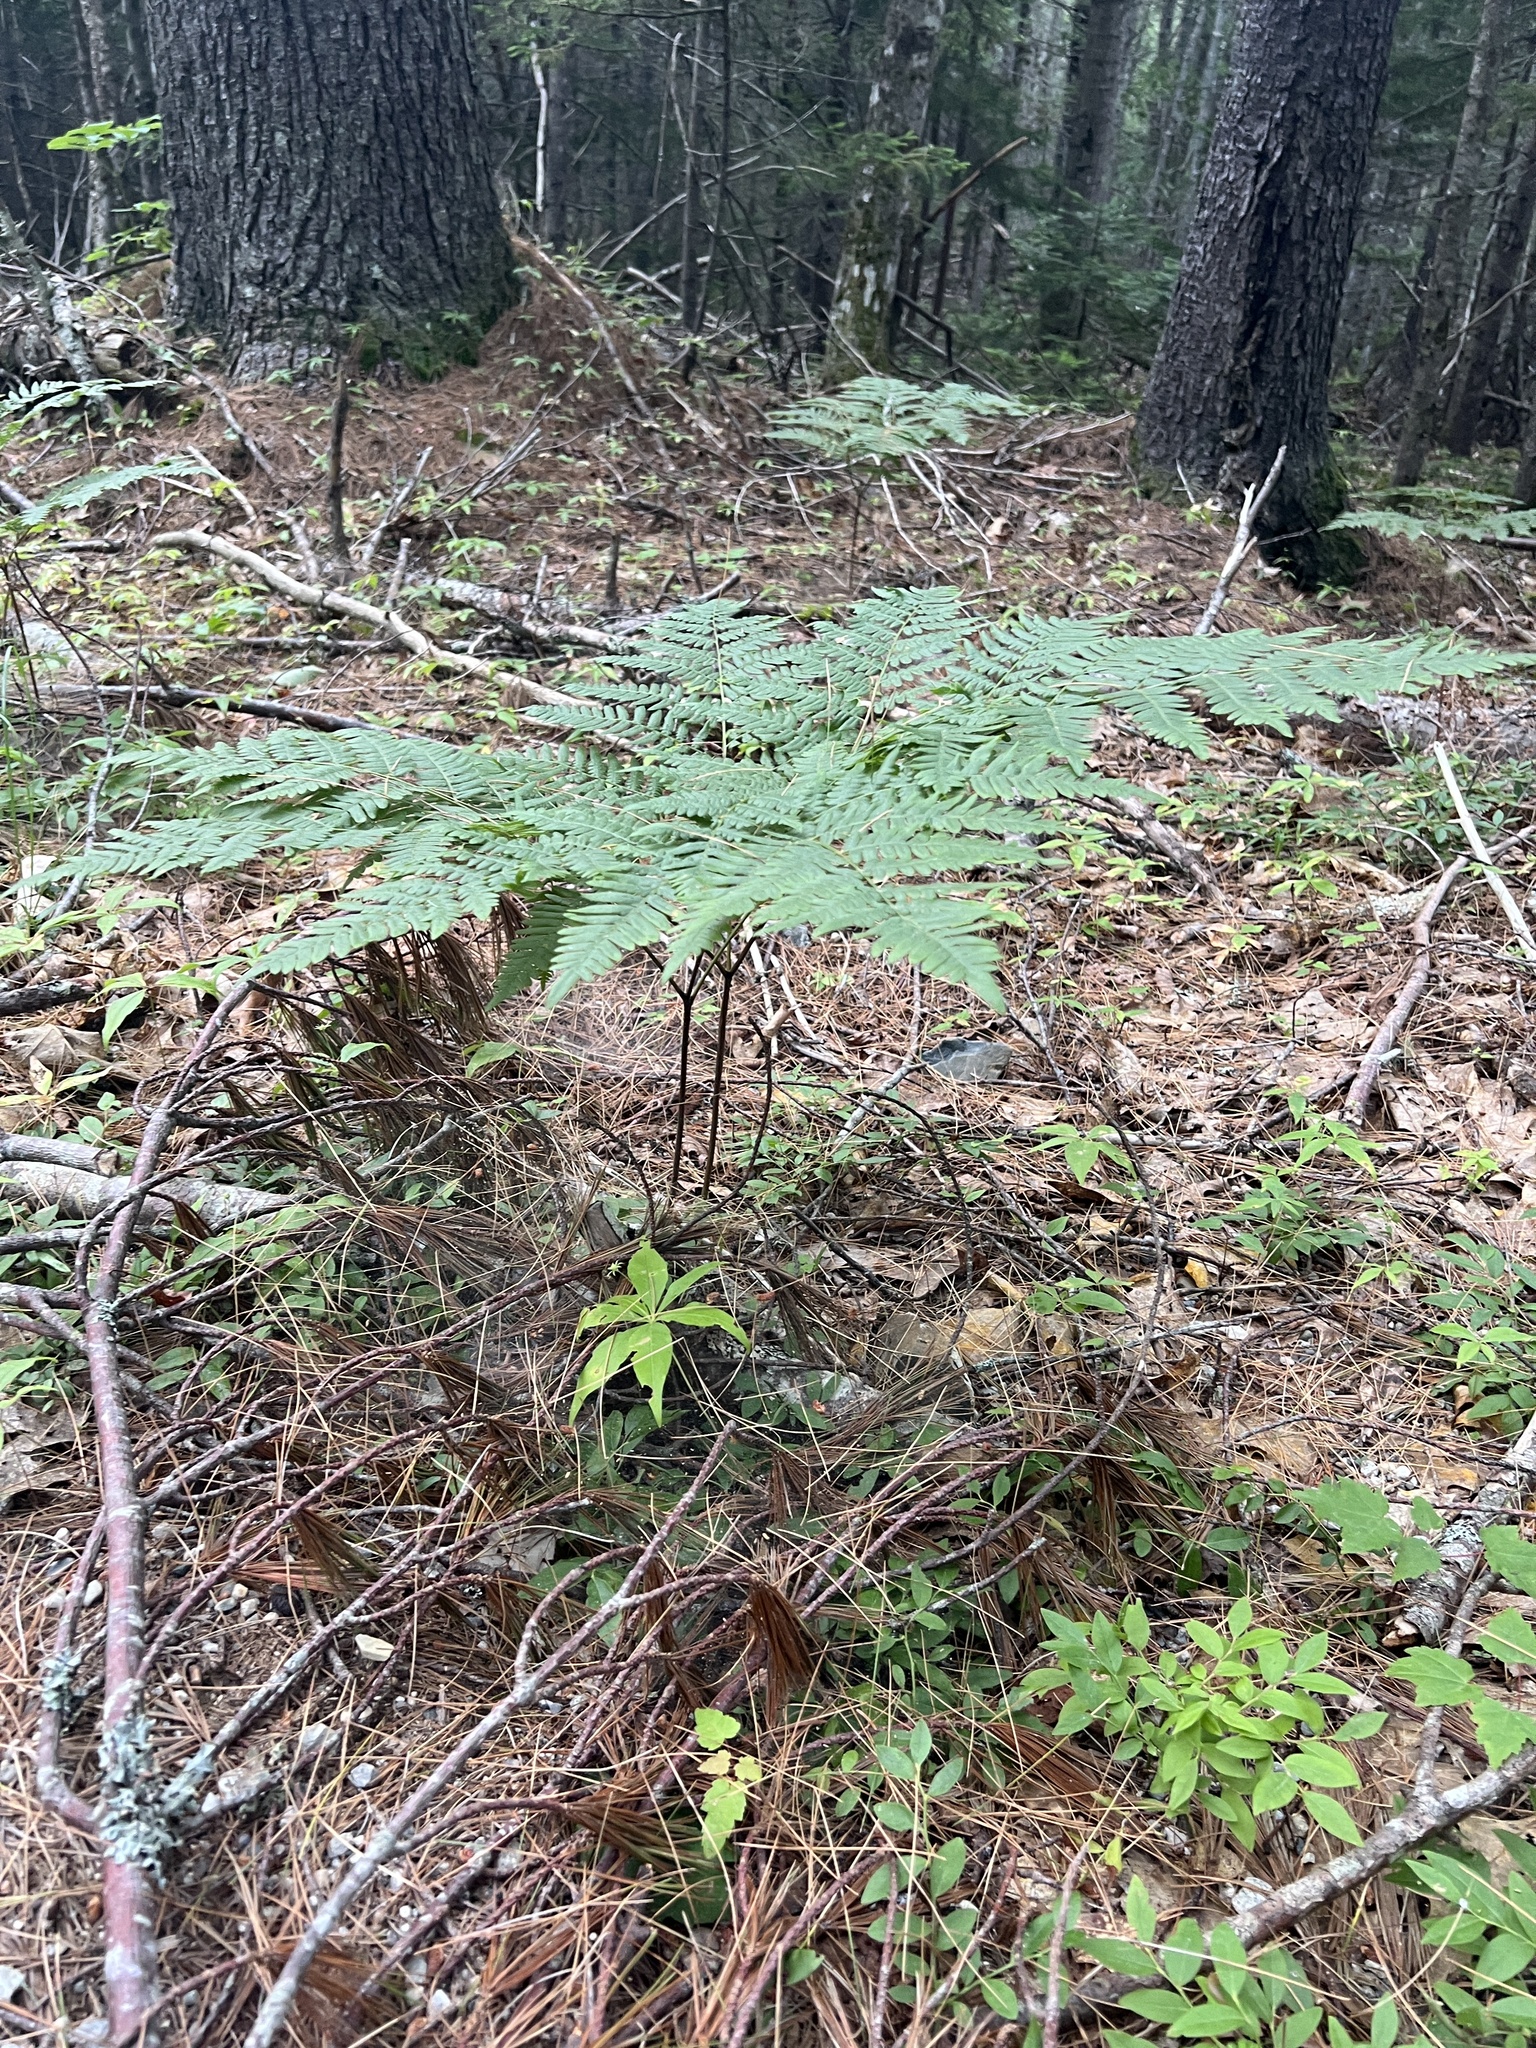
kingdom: Plantae
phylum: Tracheophyta
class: Polypodiopsida
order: Polypodiales
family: Dennstaedtiaceae
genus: Pteridium
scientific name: Pteridium aquilinum
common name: Bracken
